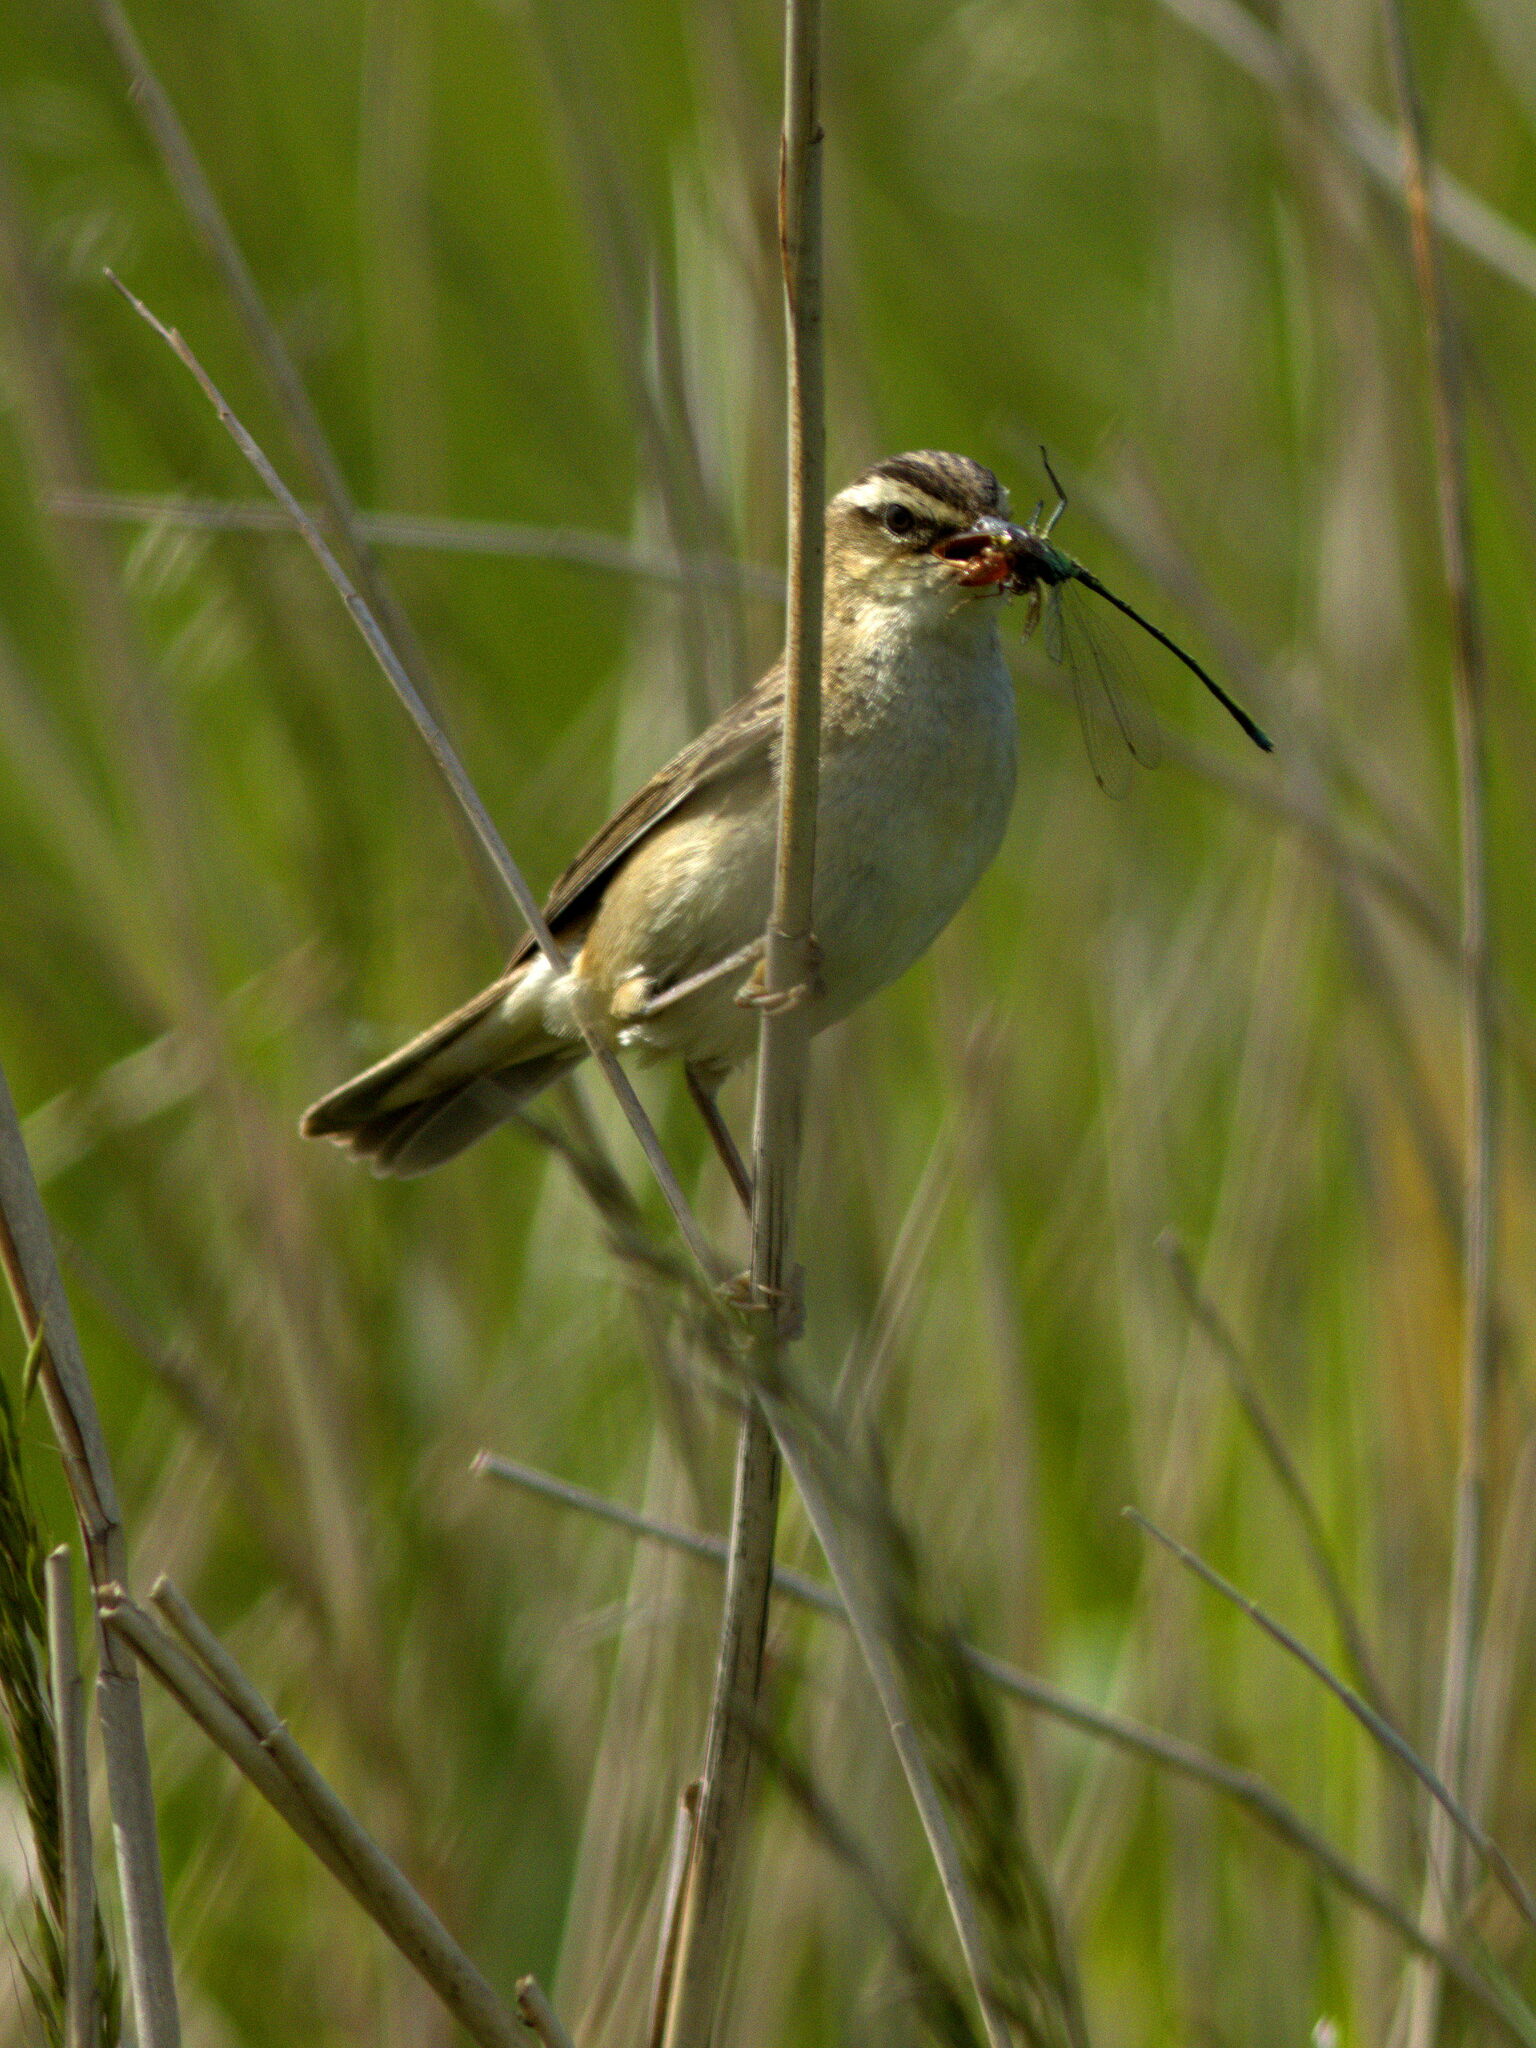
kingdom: Animalia
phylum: Chordata
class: Aves
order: Passeriformes
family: Acrocephalidae
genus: Acrocephalus
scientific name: Acrocephalus schoenobaenus
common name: Sedge warbler
